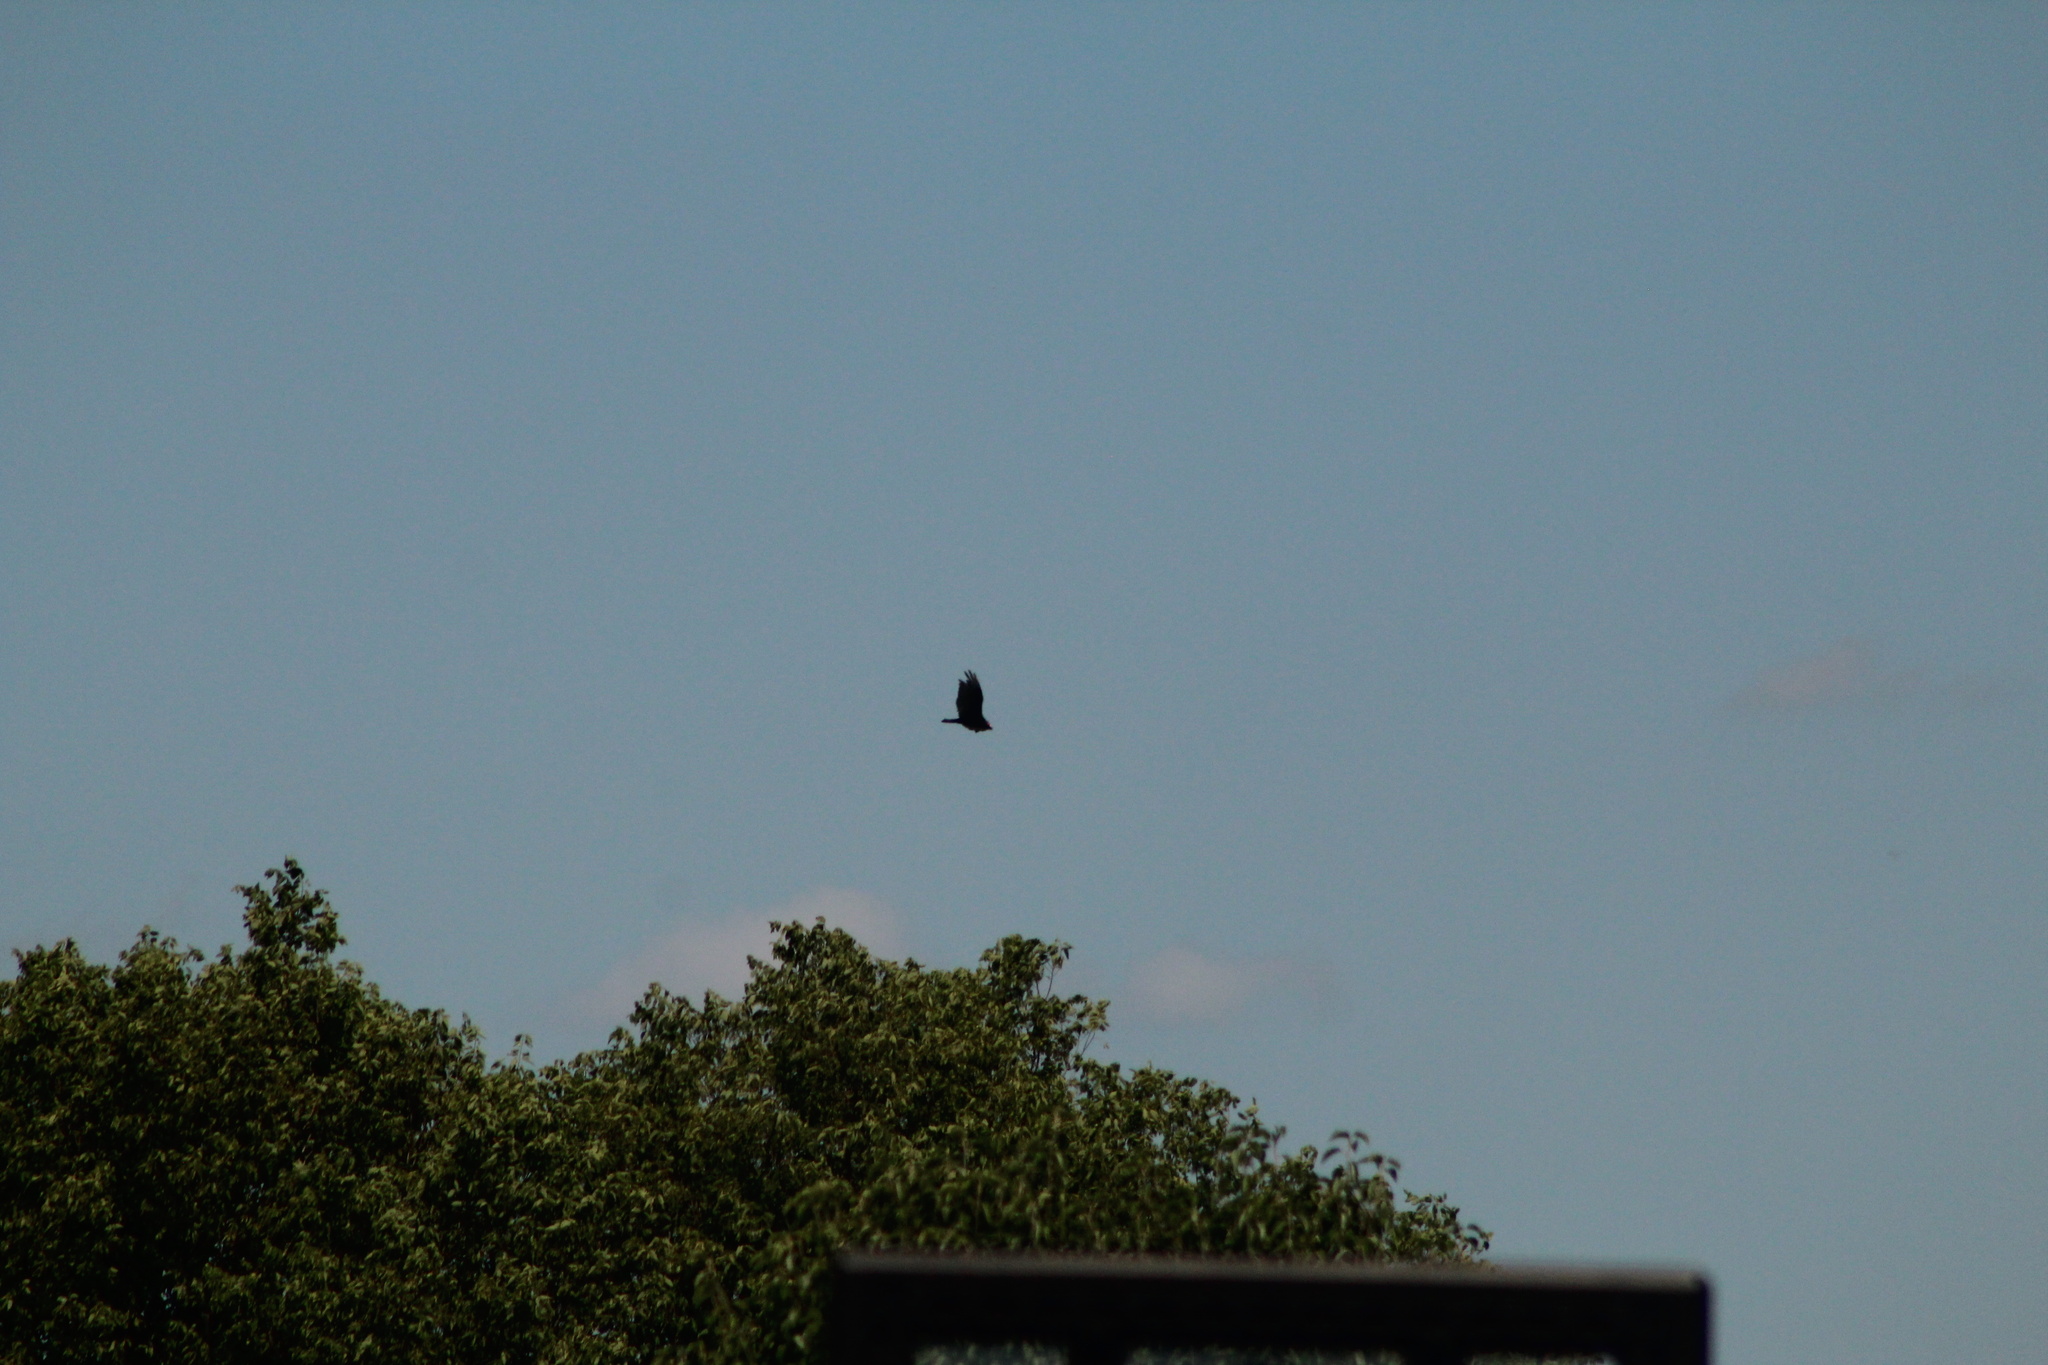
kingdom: Animalia
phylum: Chordata
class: Aves
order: Accipitriformes
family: Cathartidae
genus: Cathartes
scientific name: Cathartes aura
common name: Turkey vulture
